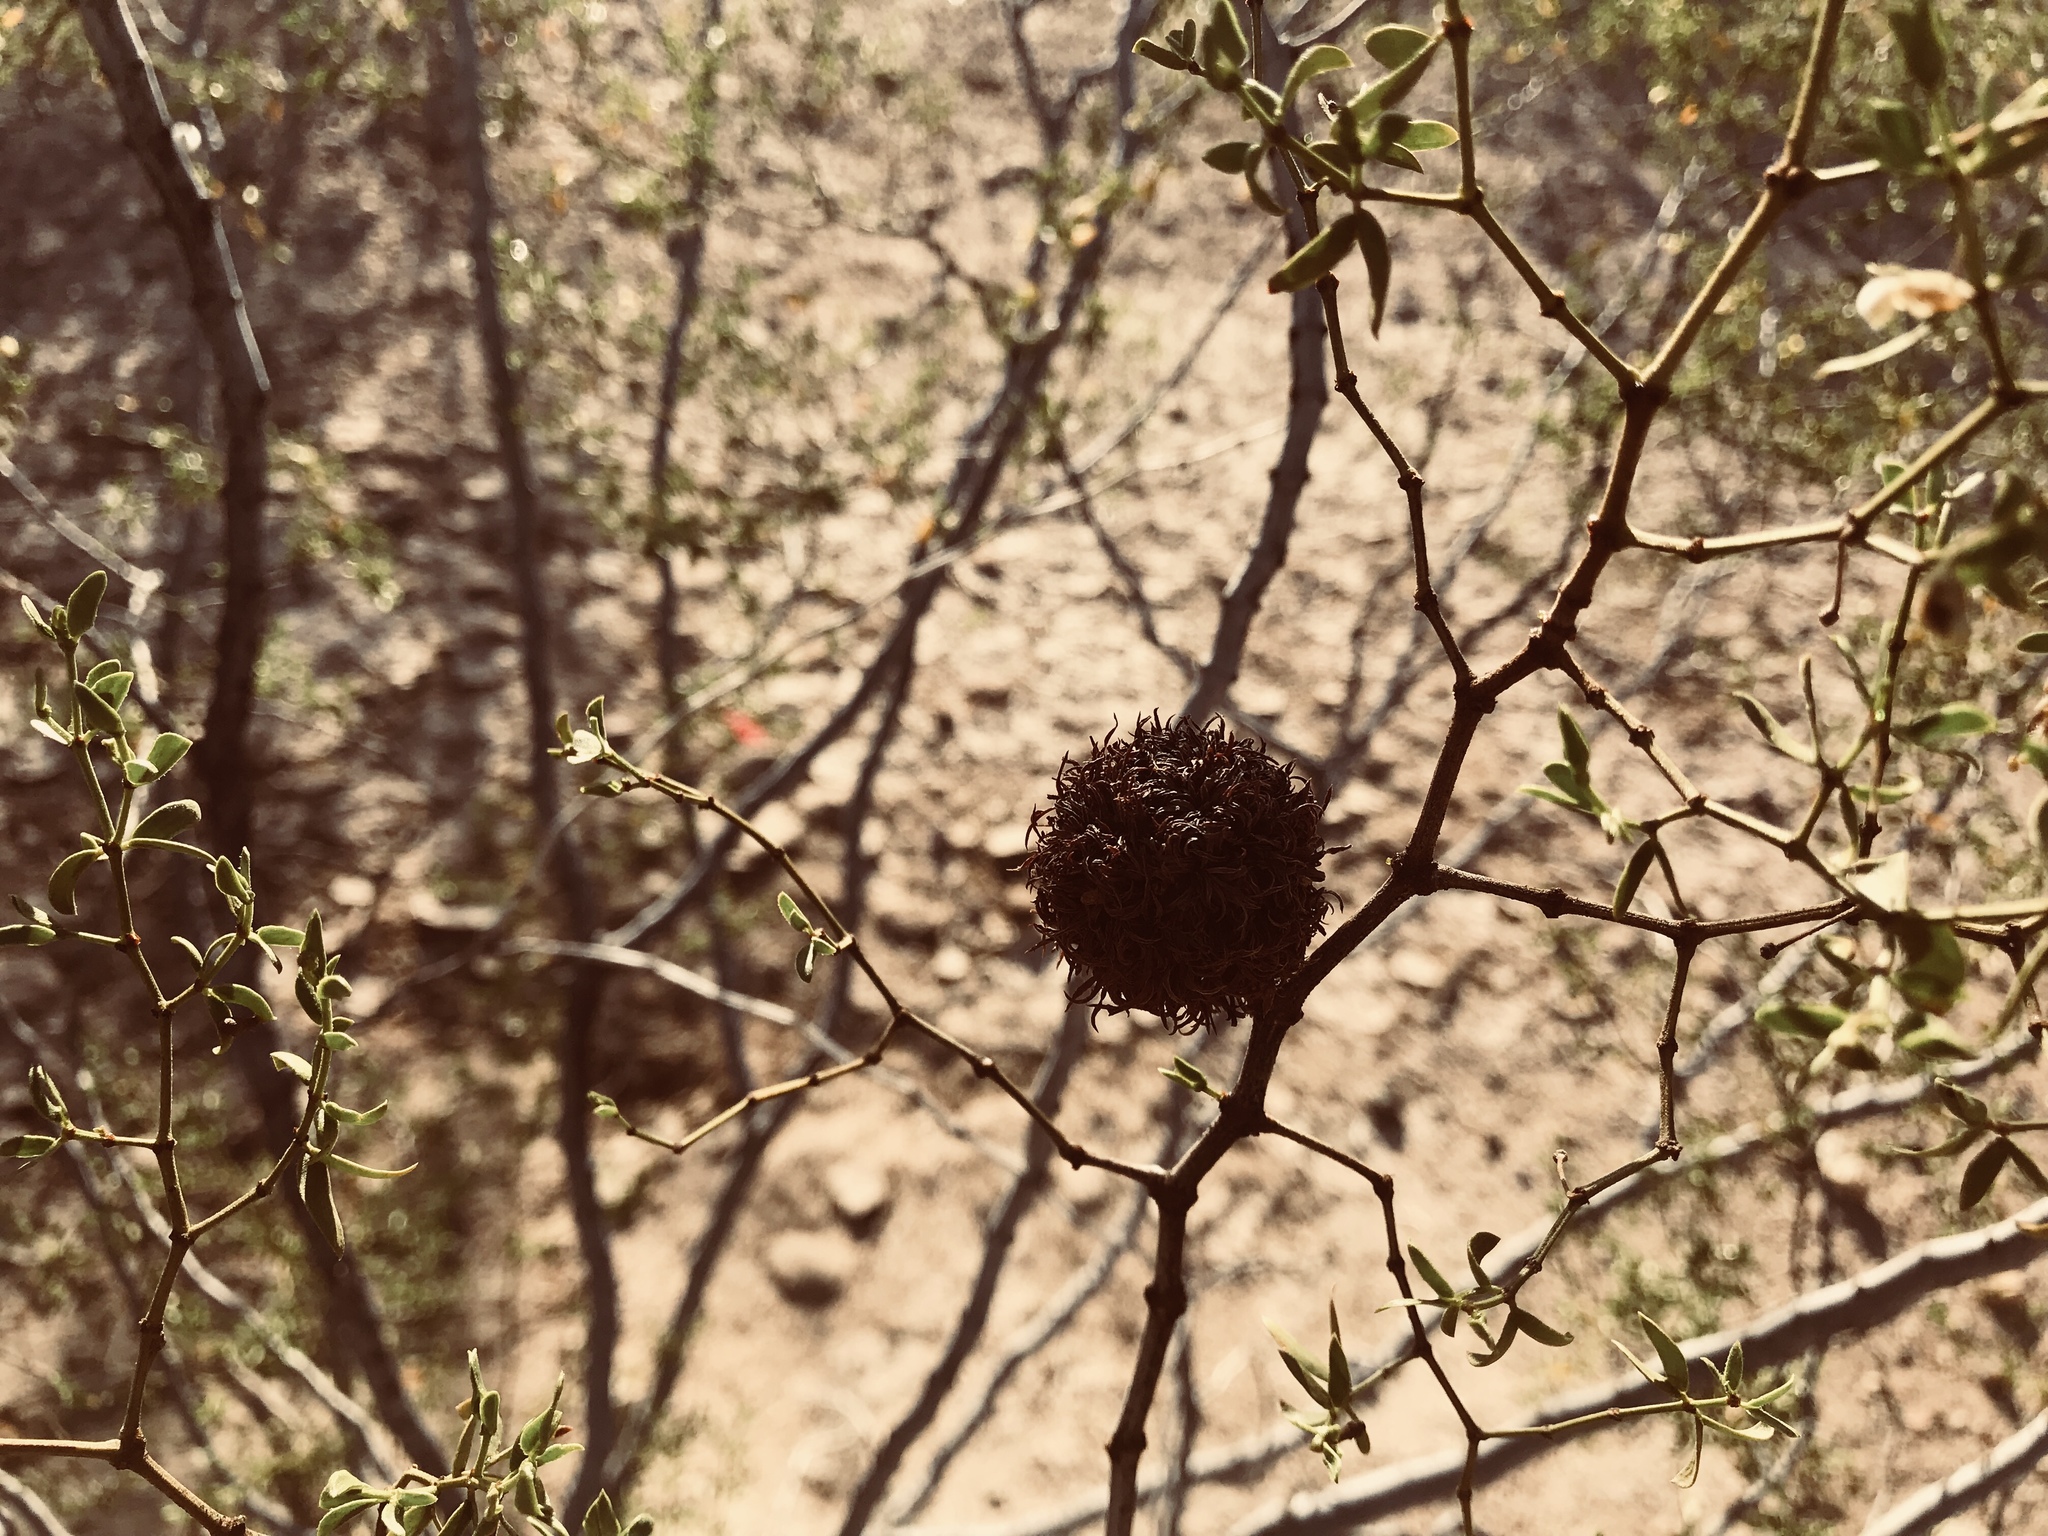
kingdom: Animalia
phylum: Arthropoda
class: Insecta
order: Diptera
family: Cecidomyiidae
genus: Asphondylia
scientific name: Asphondylia auripila
